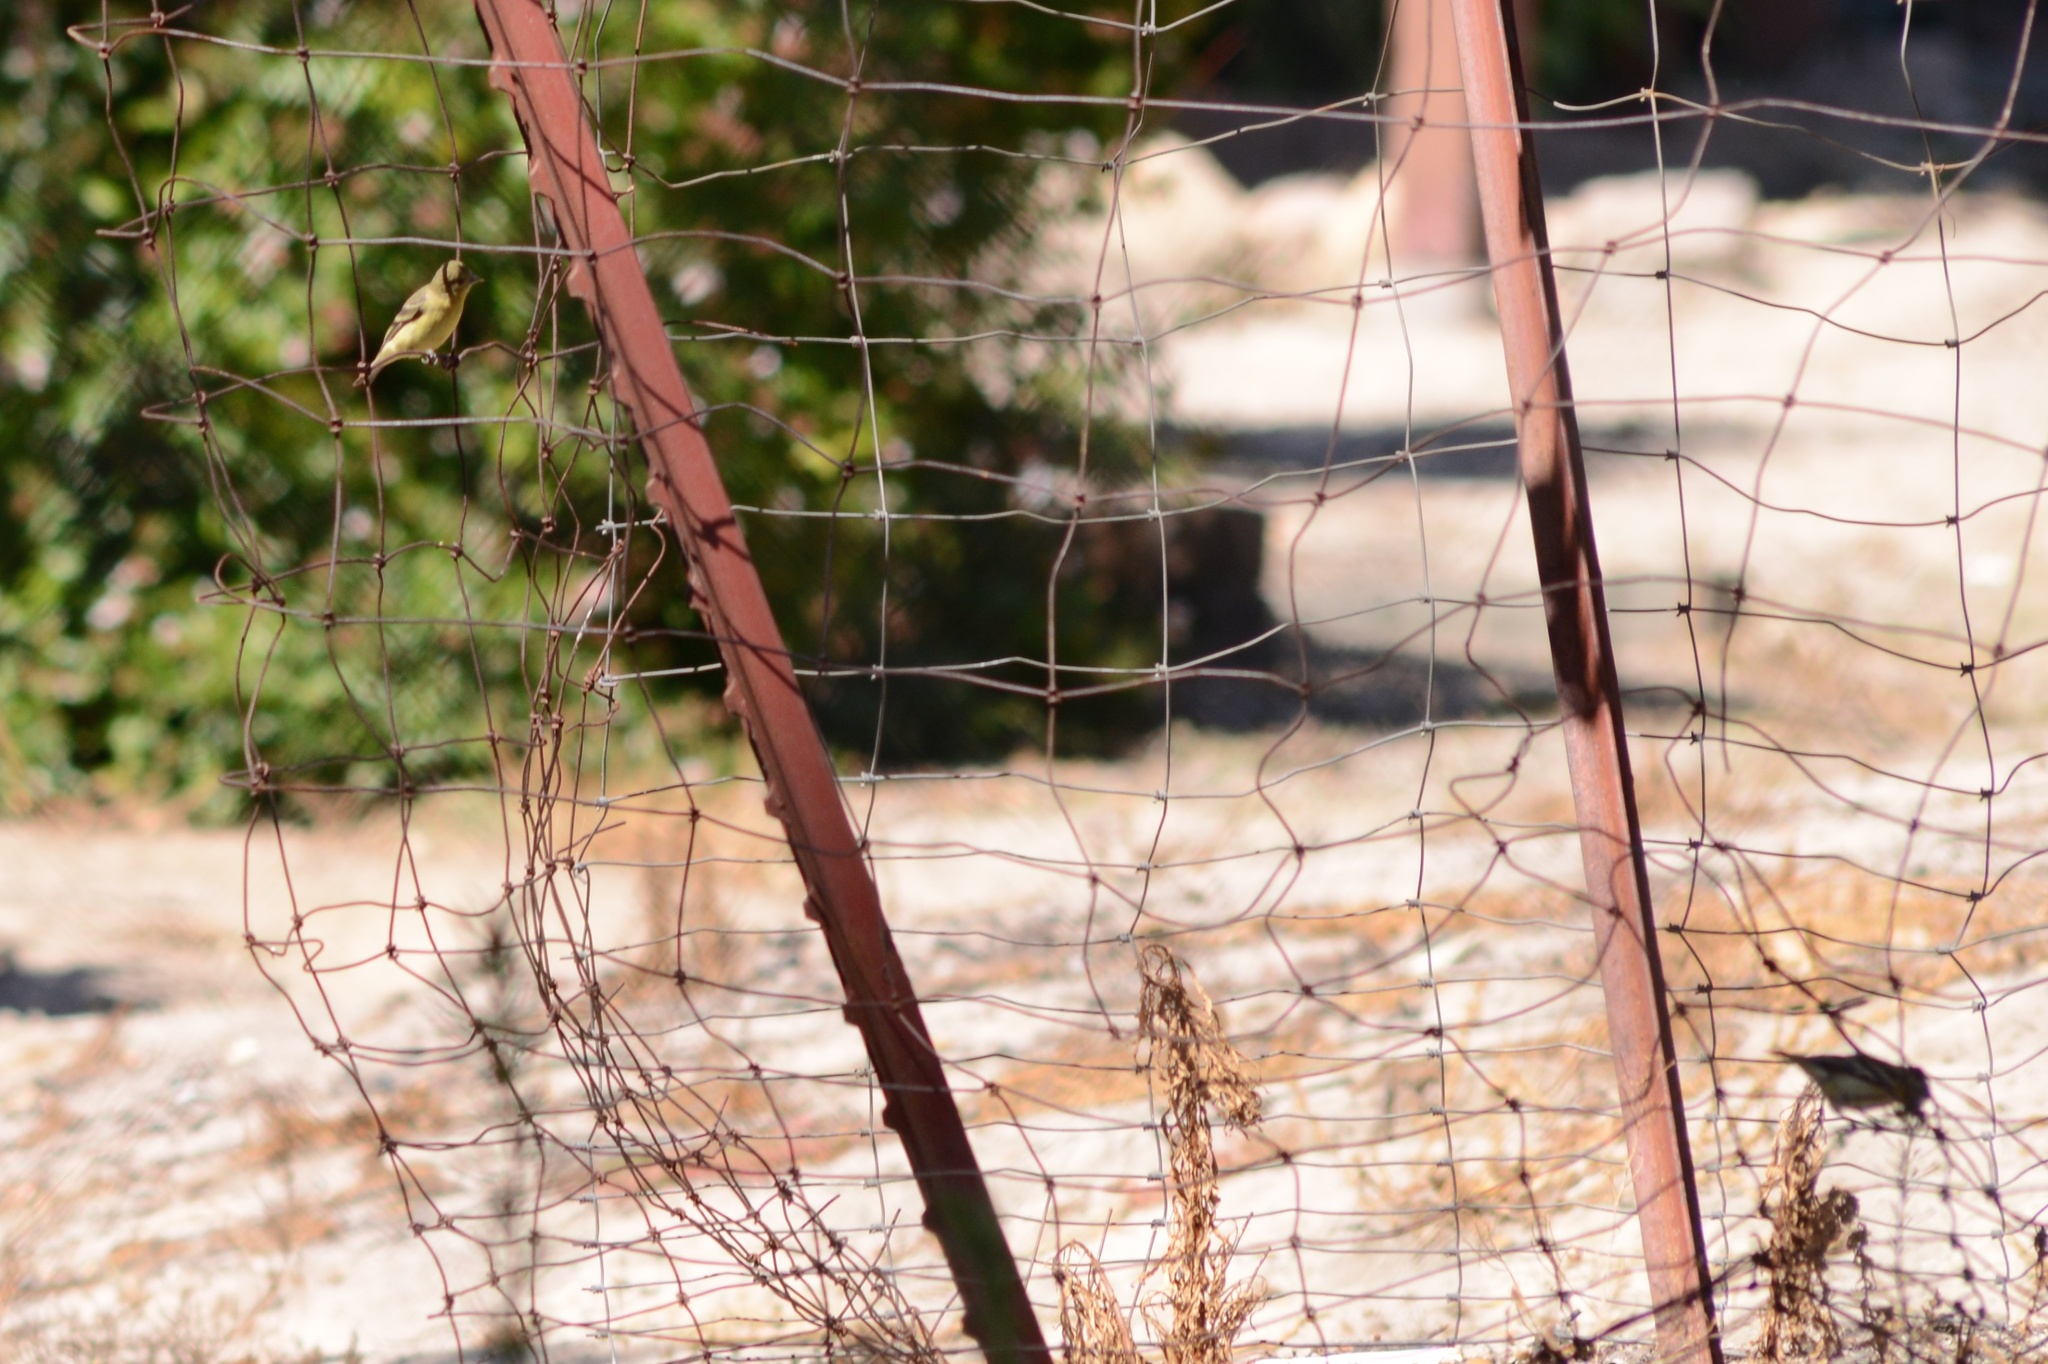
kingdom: Animalia
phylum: Chordata
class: Aves
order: Passeriformes
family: Fringillidae
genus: Spinus
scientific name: Spinus psaltria
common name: Lesser goldfinch
